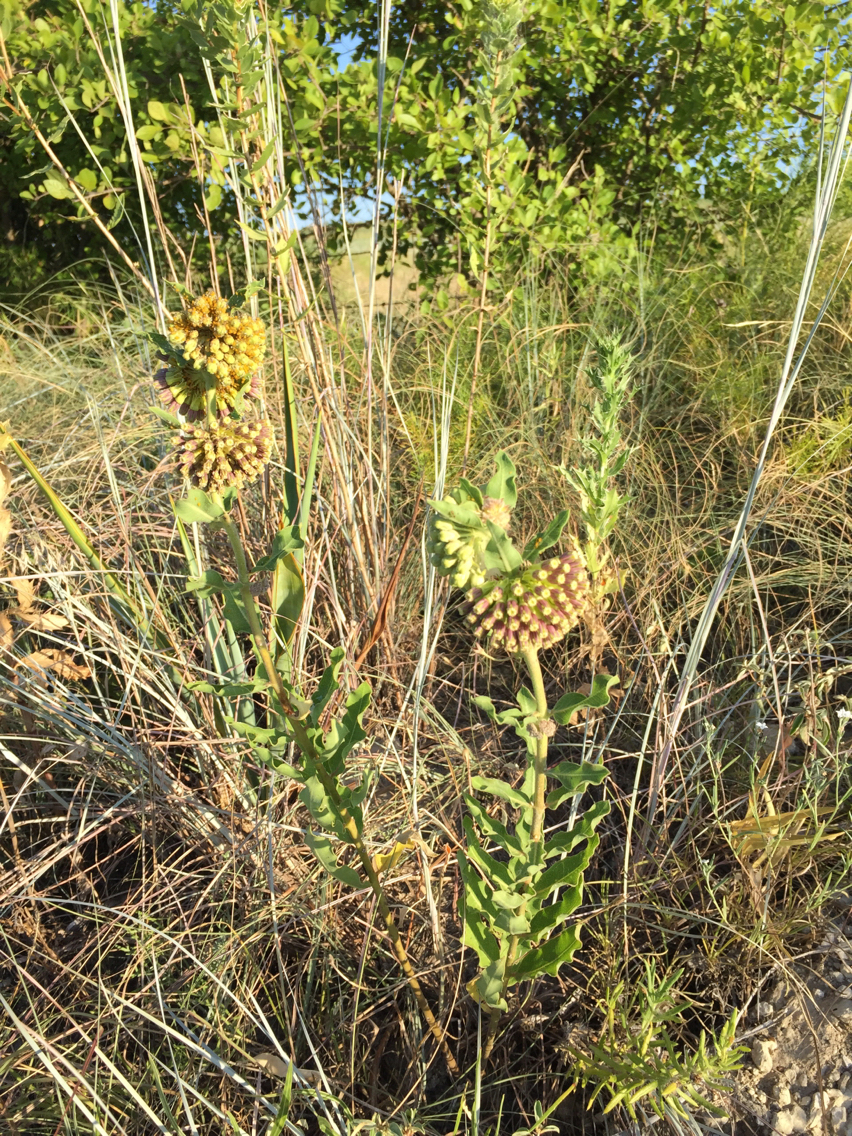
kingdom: Plantae
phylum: Tracheophyta
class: Magnoliopsida
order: Gentianales
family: Apocynaceae
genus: Asclepias
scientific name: Asclepias viridiflora
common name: Green comet milkweed
